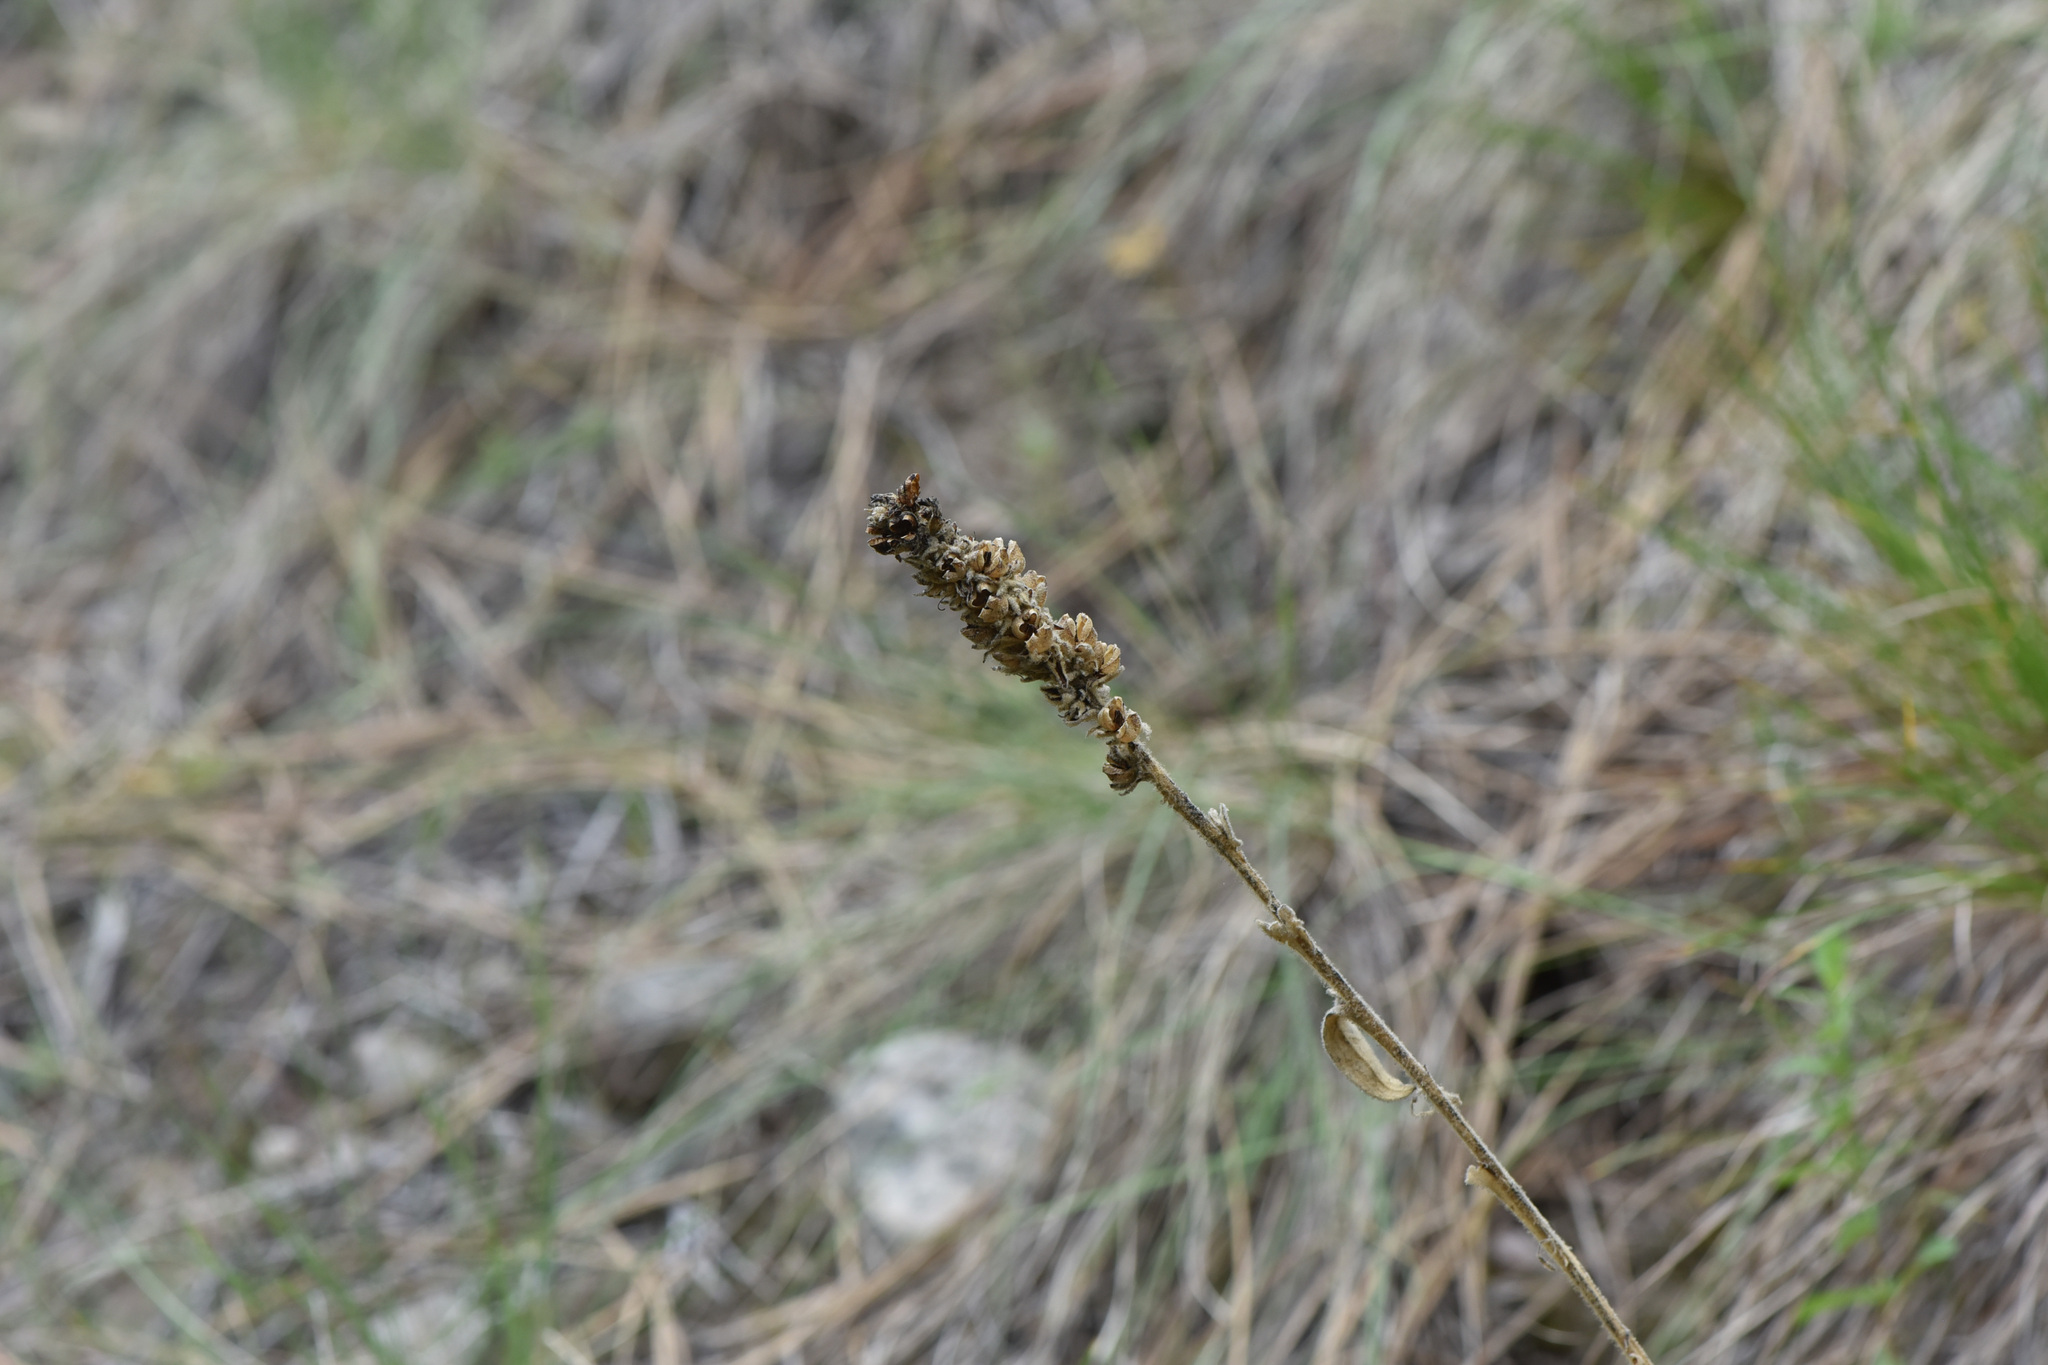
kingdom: Plantae
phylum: Tracheophyta
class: Magnoliopsida
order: Lamiales
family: Scrophulariaceae
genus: Verbascum
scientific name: Verbascum thapsus
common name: Common mullein
